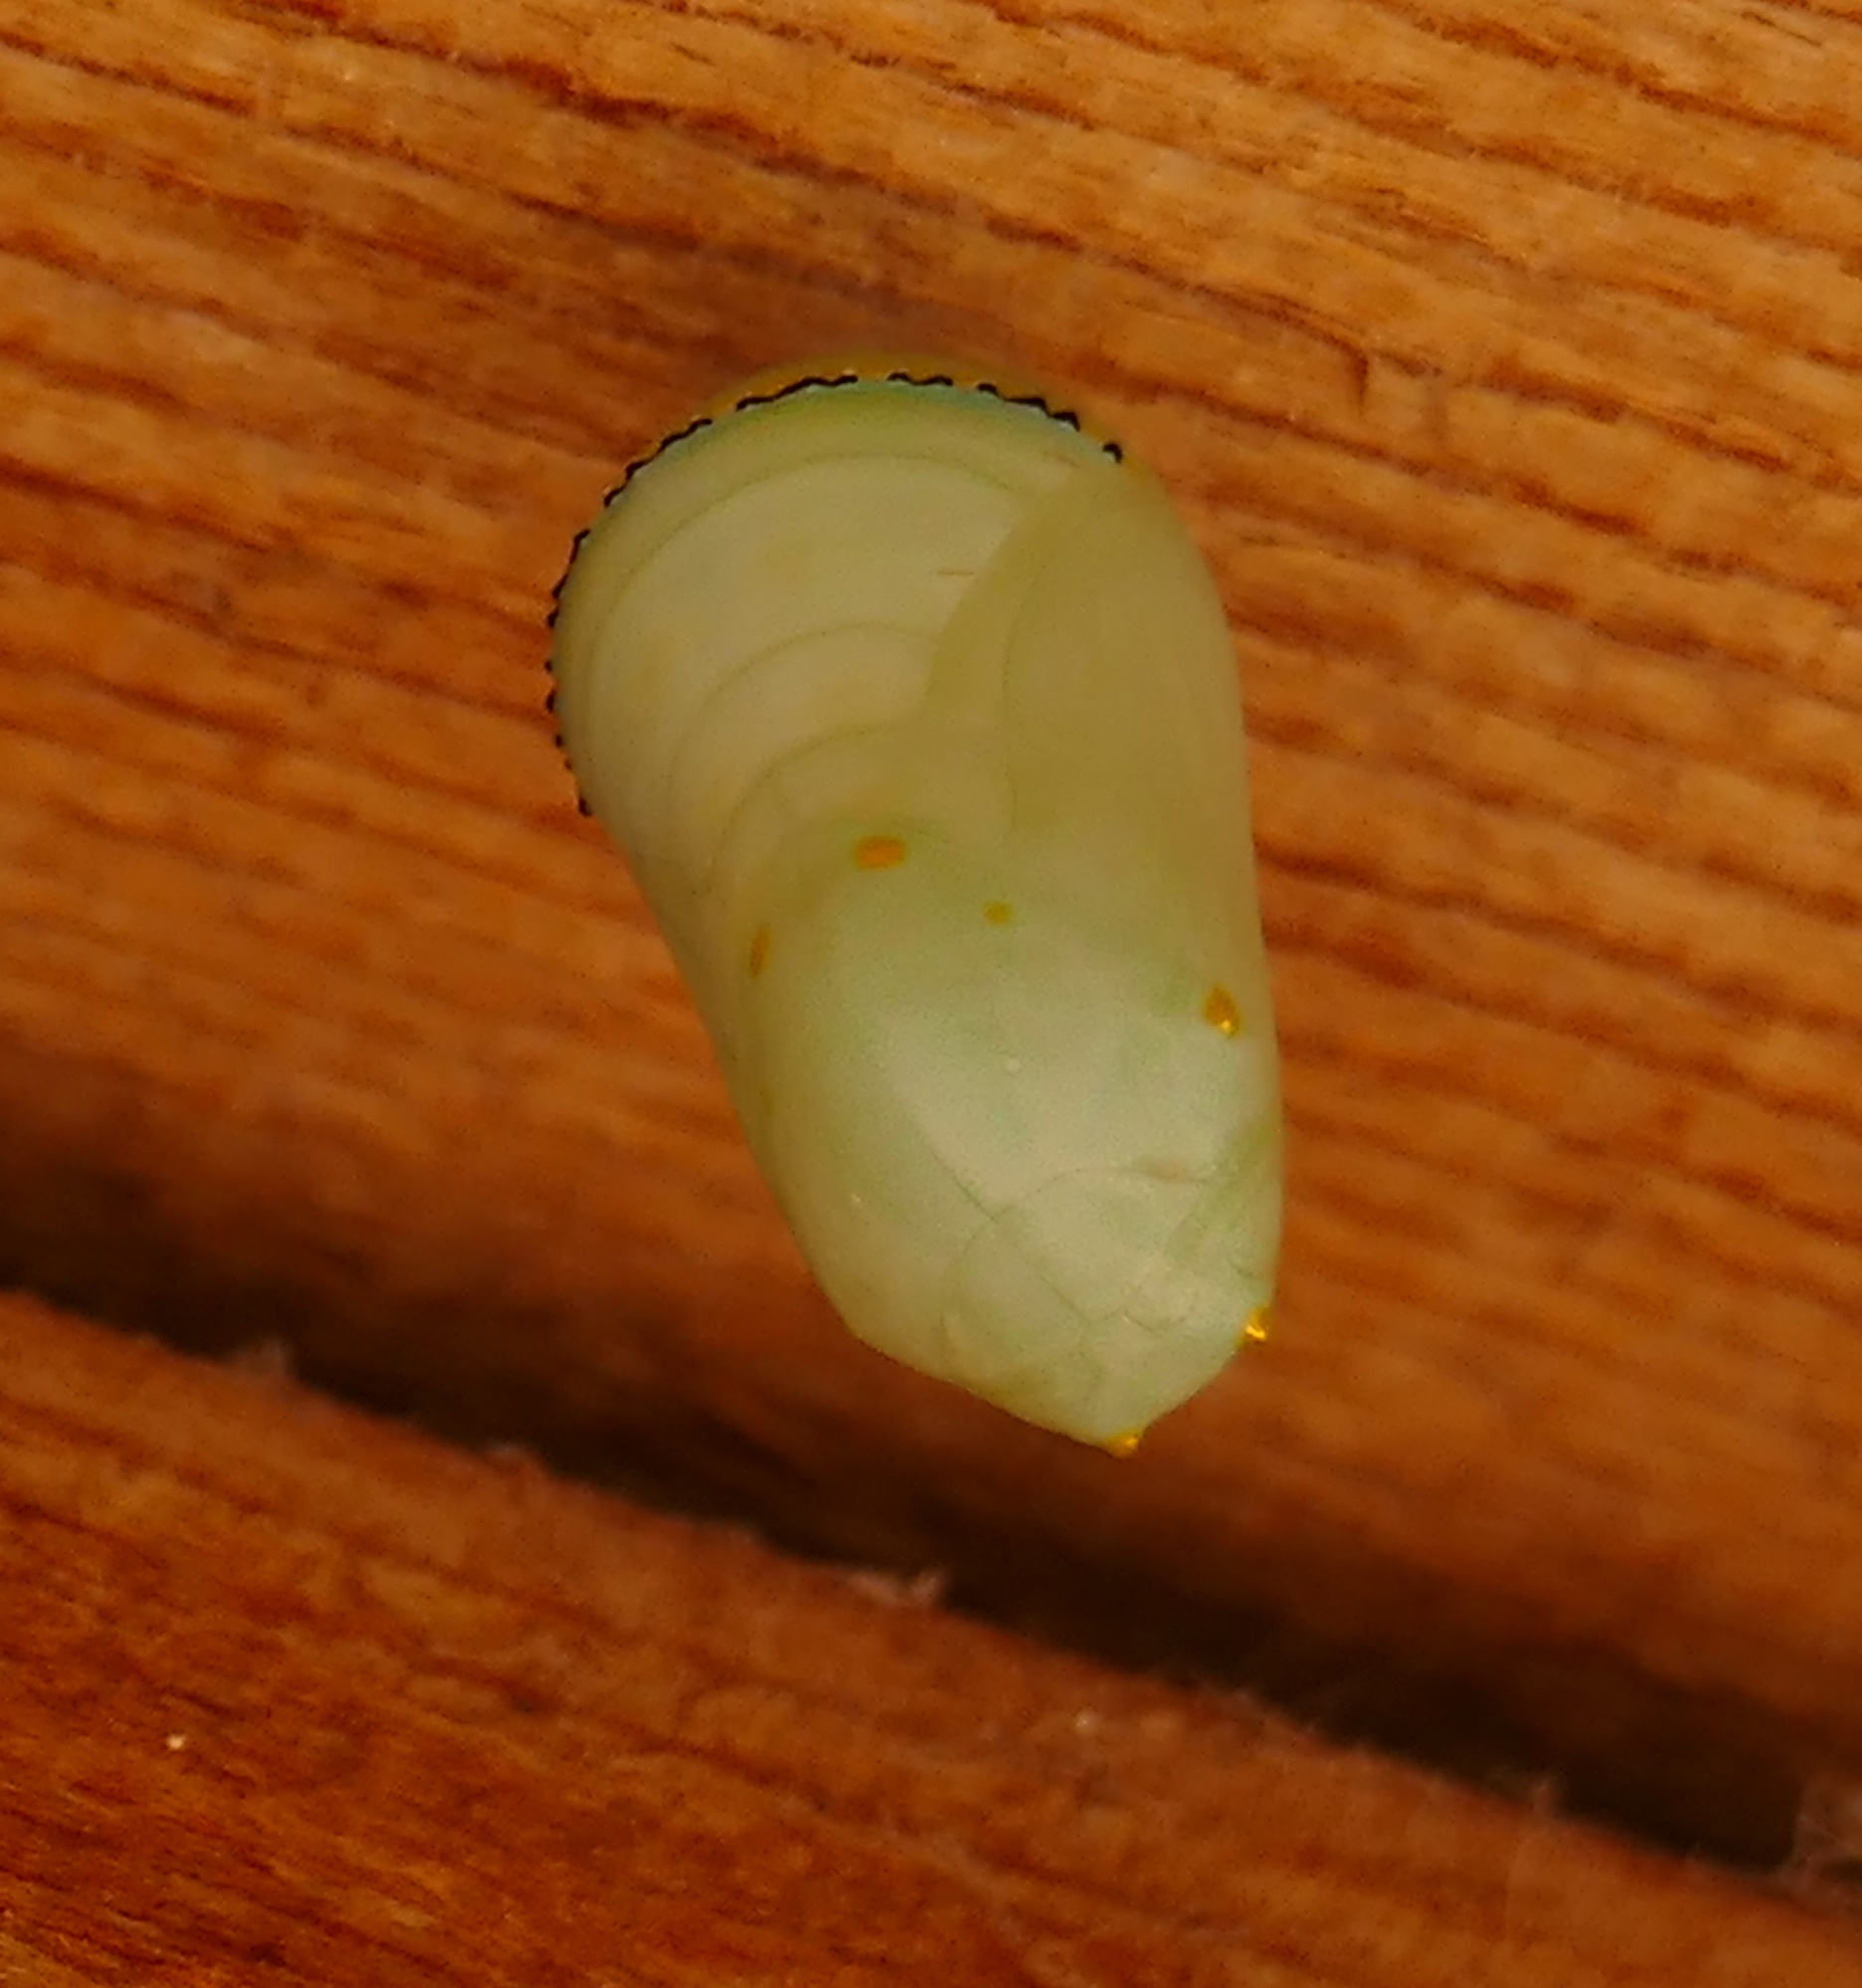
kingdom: Animalia
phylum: Arthropoda
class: Insecta
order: Lepidoptera
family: Nymphalidae
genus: Danaus
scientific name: Danaus plexippus
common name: Monarch
